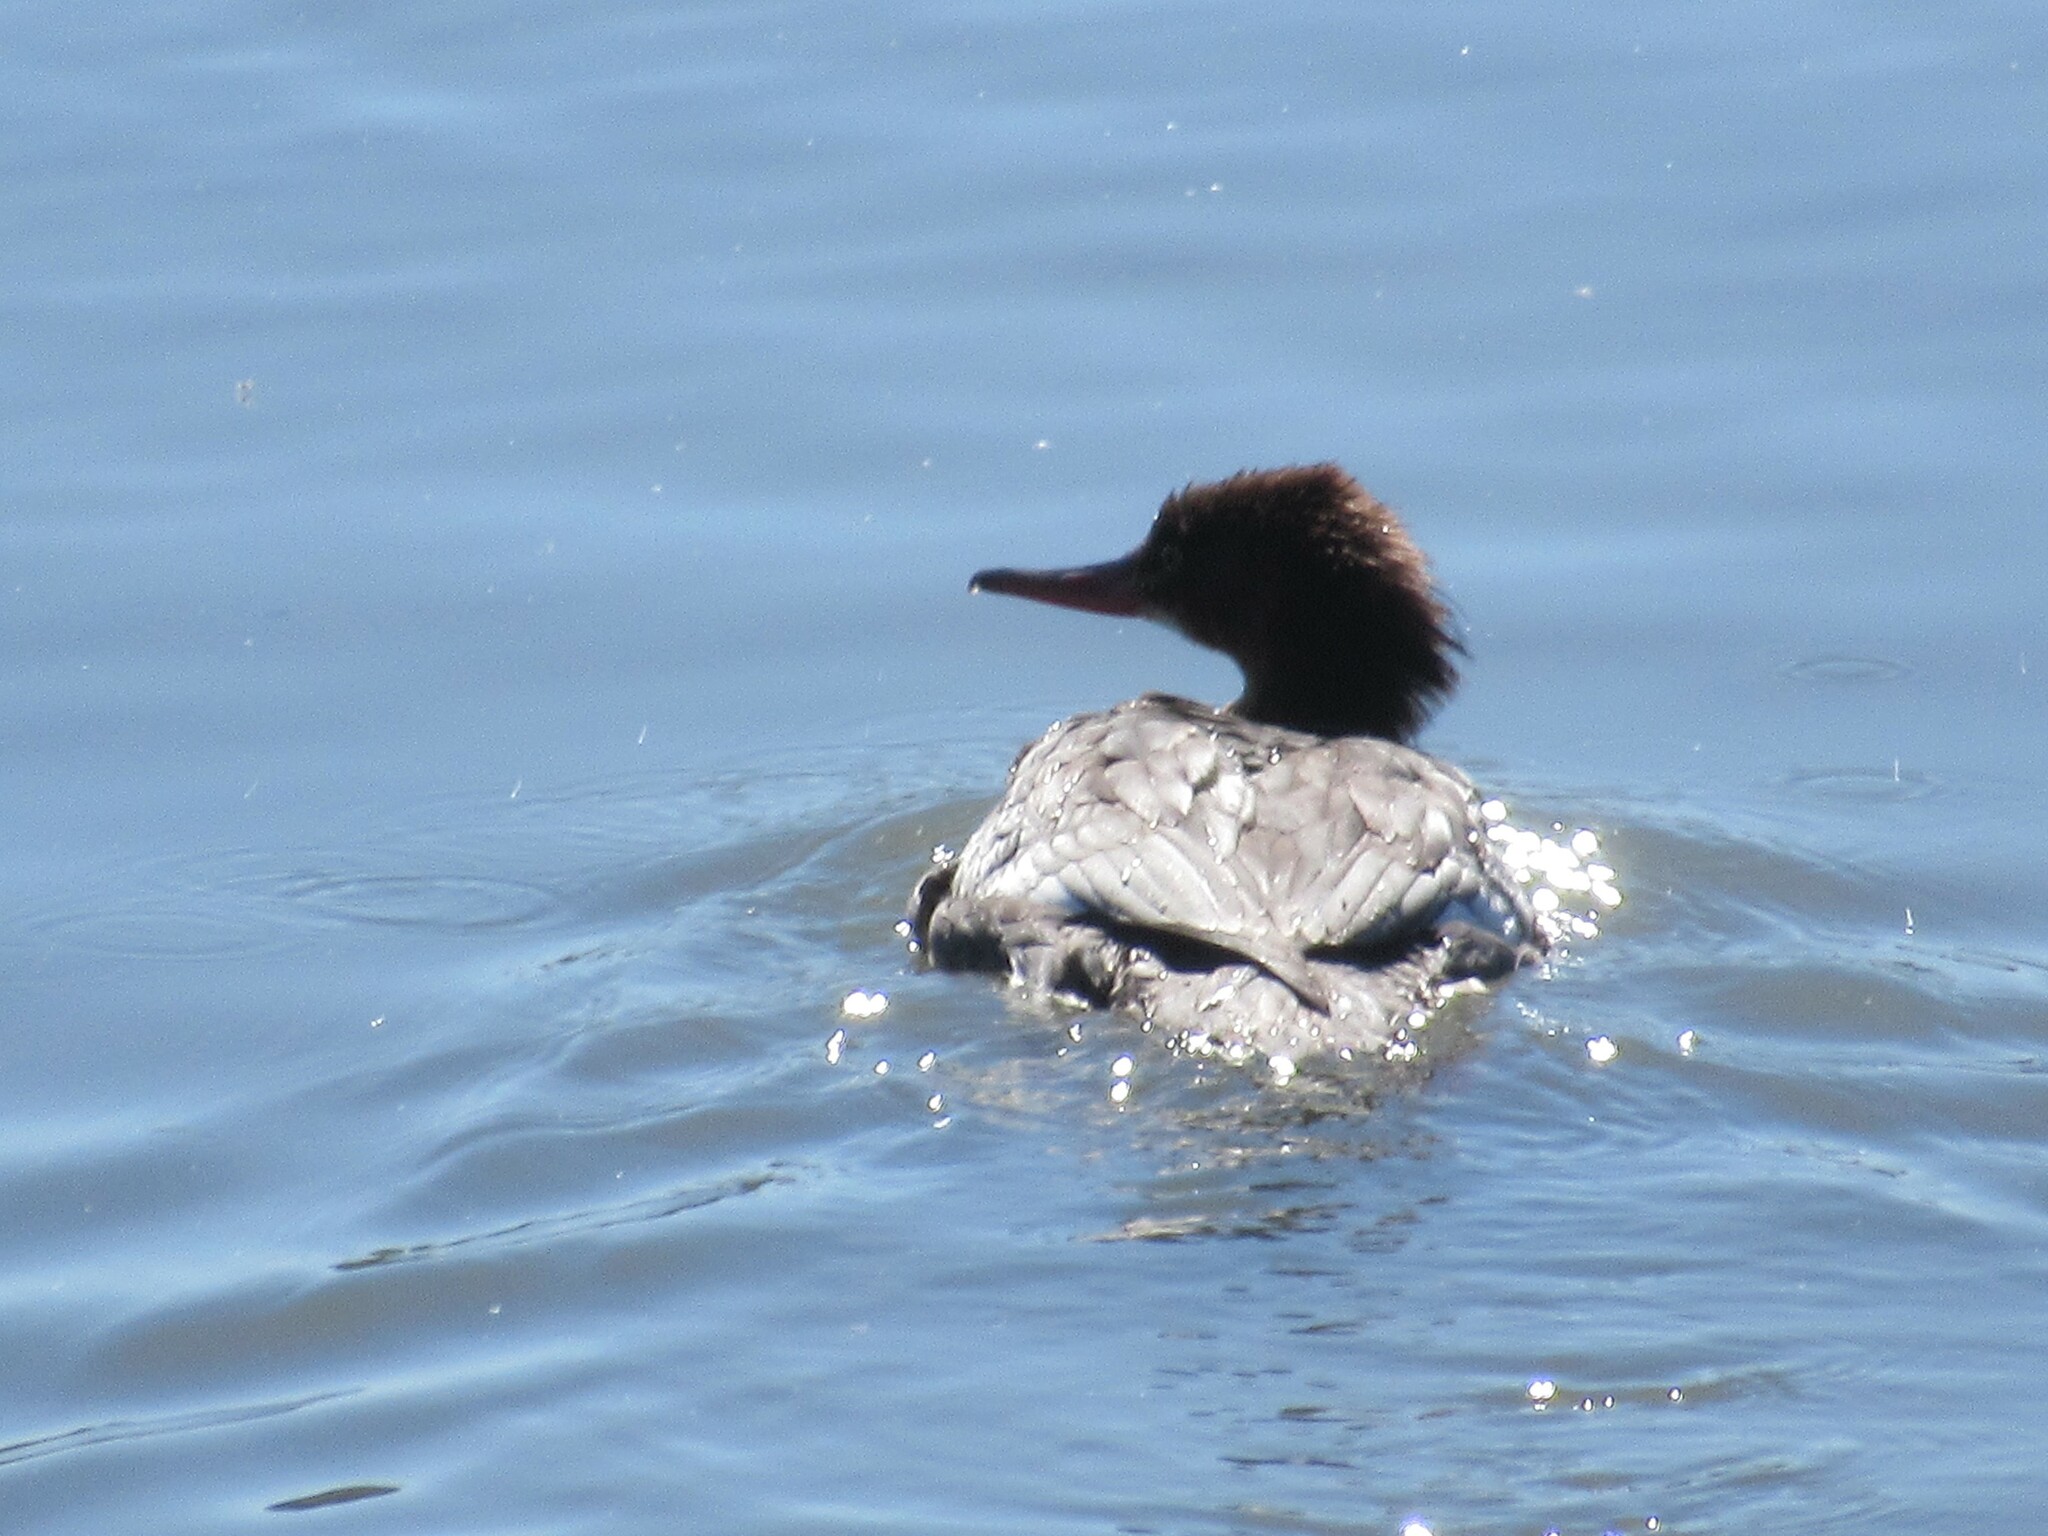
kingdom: Animalia
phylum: Chordata
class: Aves
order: Anseriformes
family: Anatidae
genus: Mergus
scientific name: Mergus merganser
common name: Common merganser
